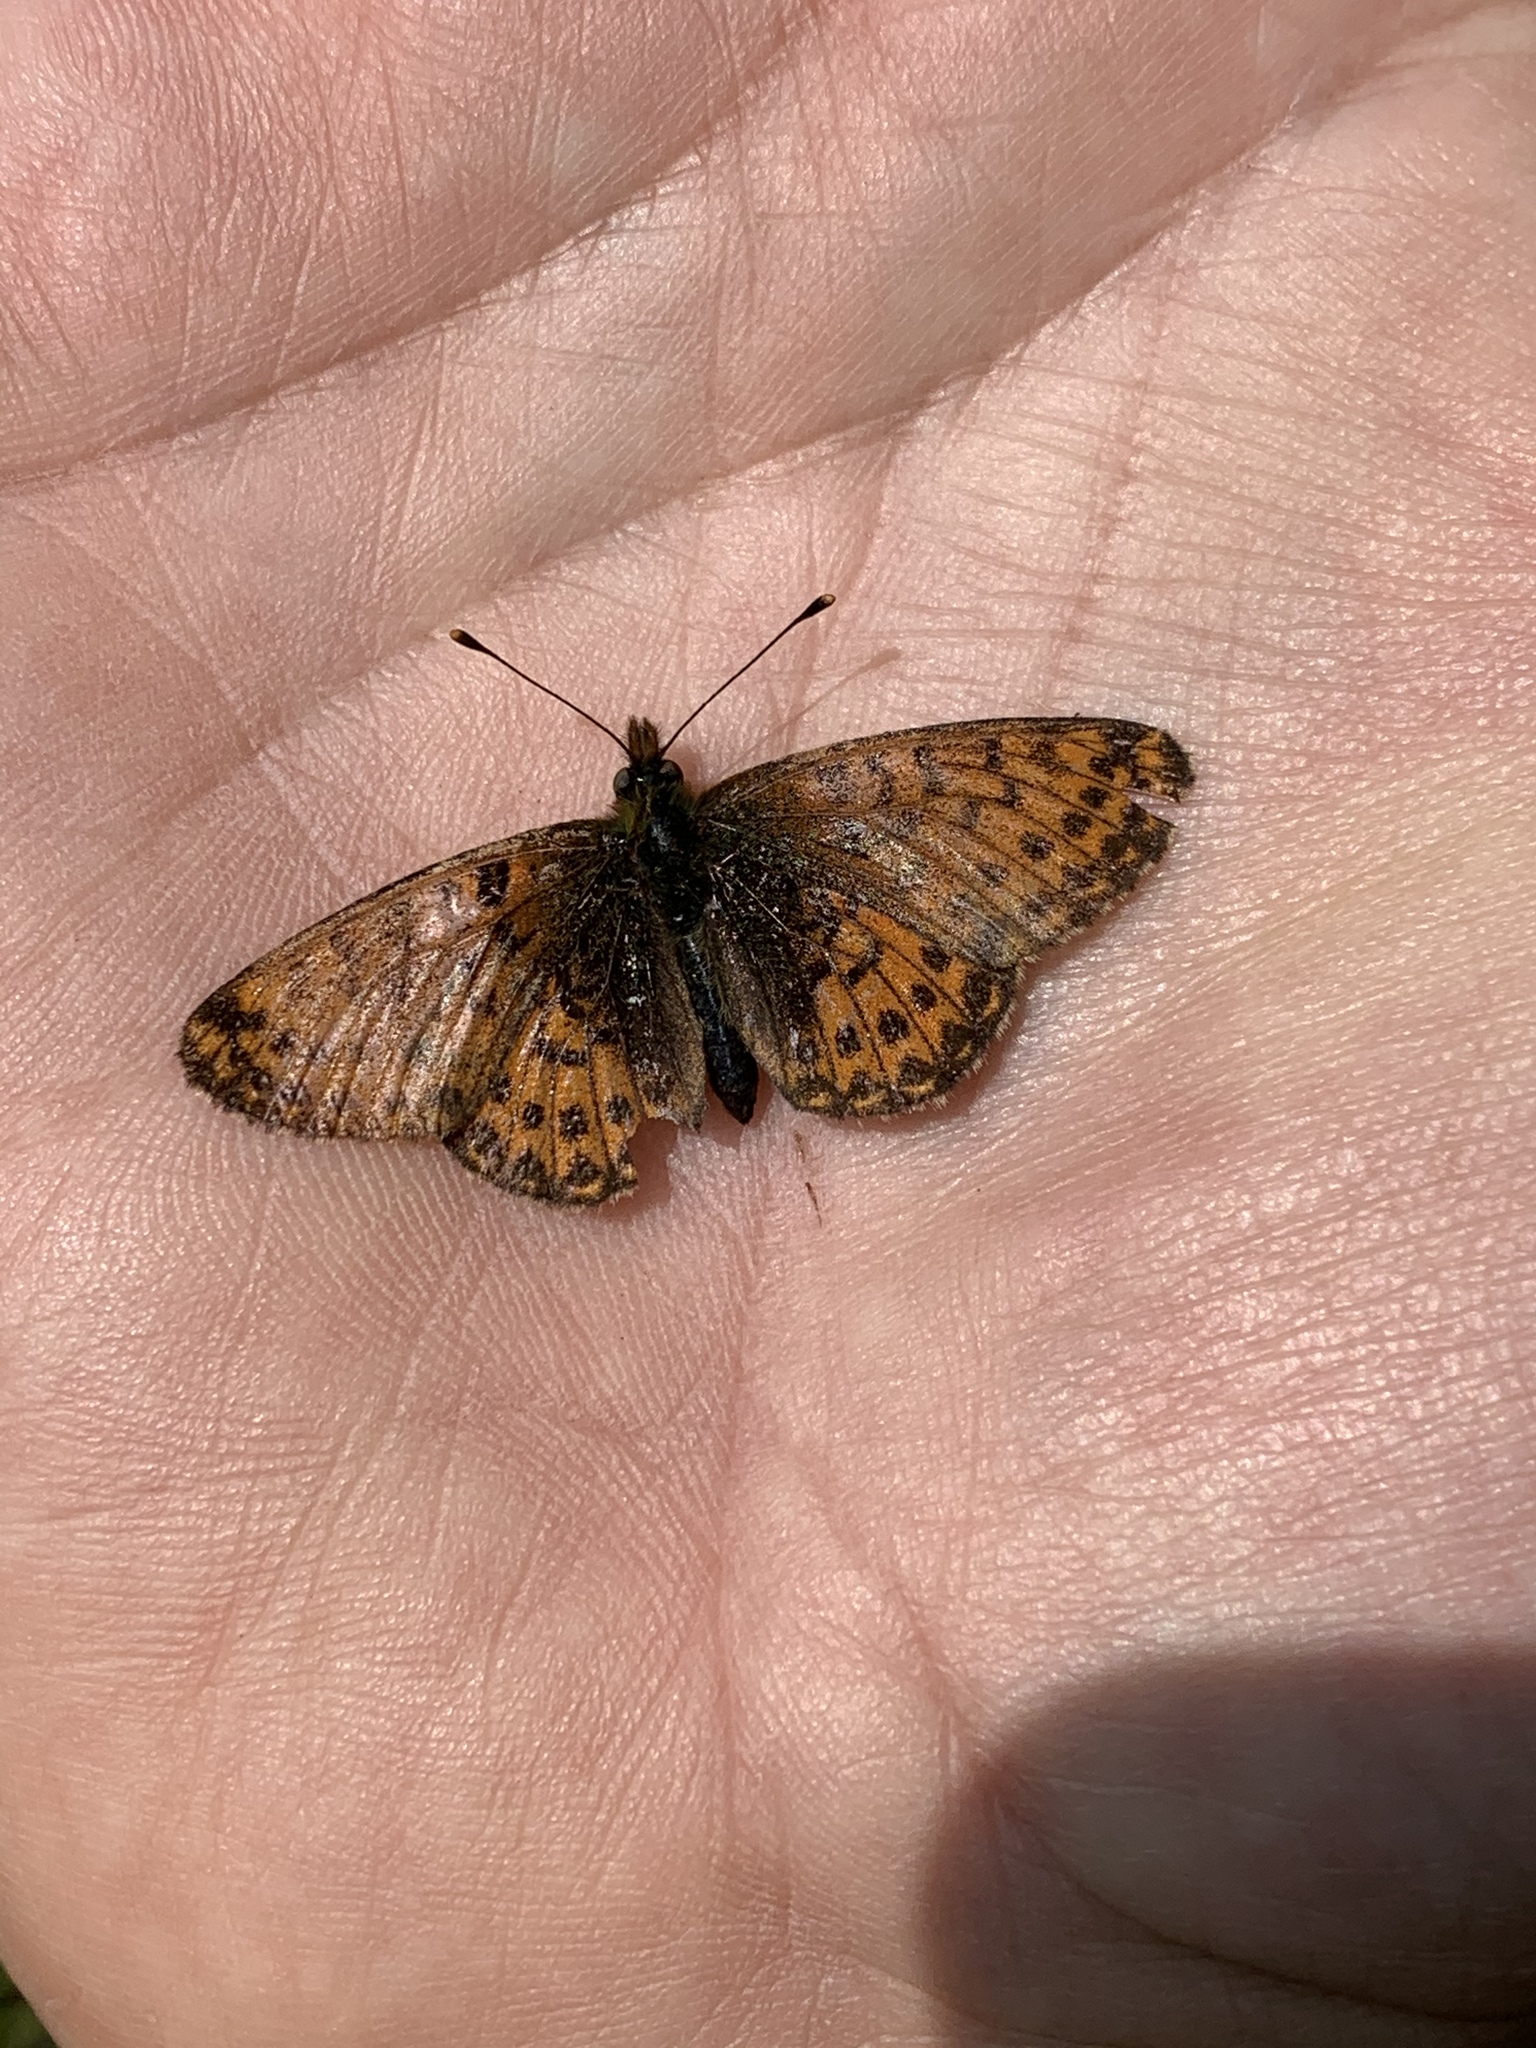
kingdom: Animalia
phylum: Arthropoda
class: Insecta
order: Lepidoptera
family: Nymphalidae
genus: Boloria
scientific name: Boloria chariclea
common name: Arctic fritillary
